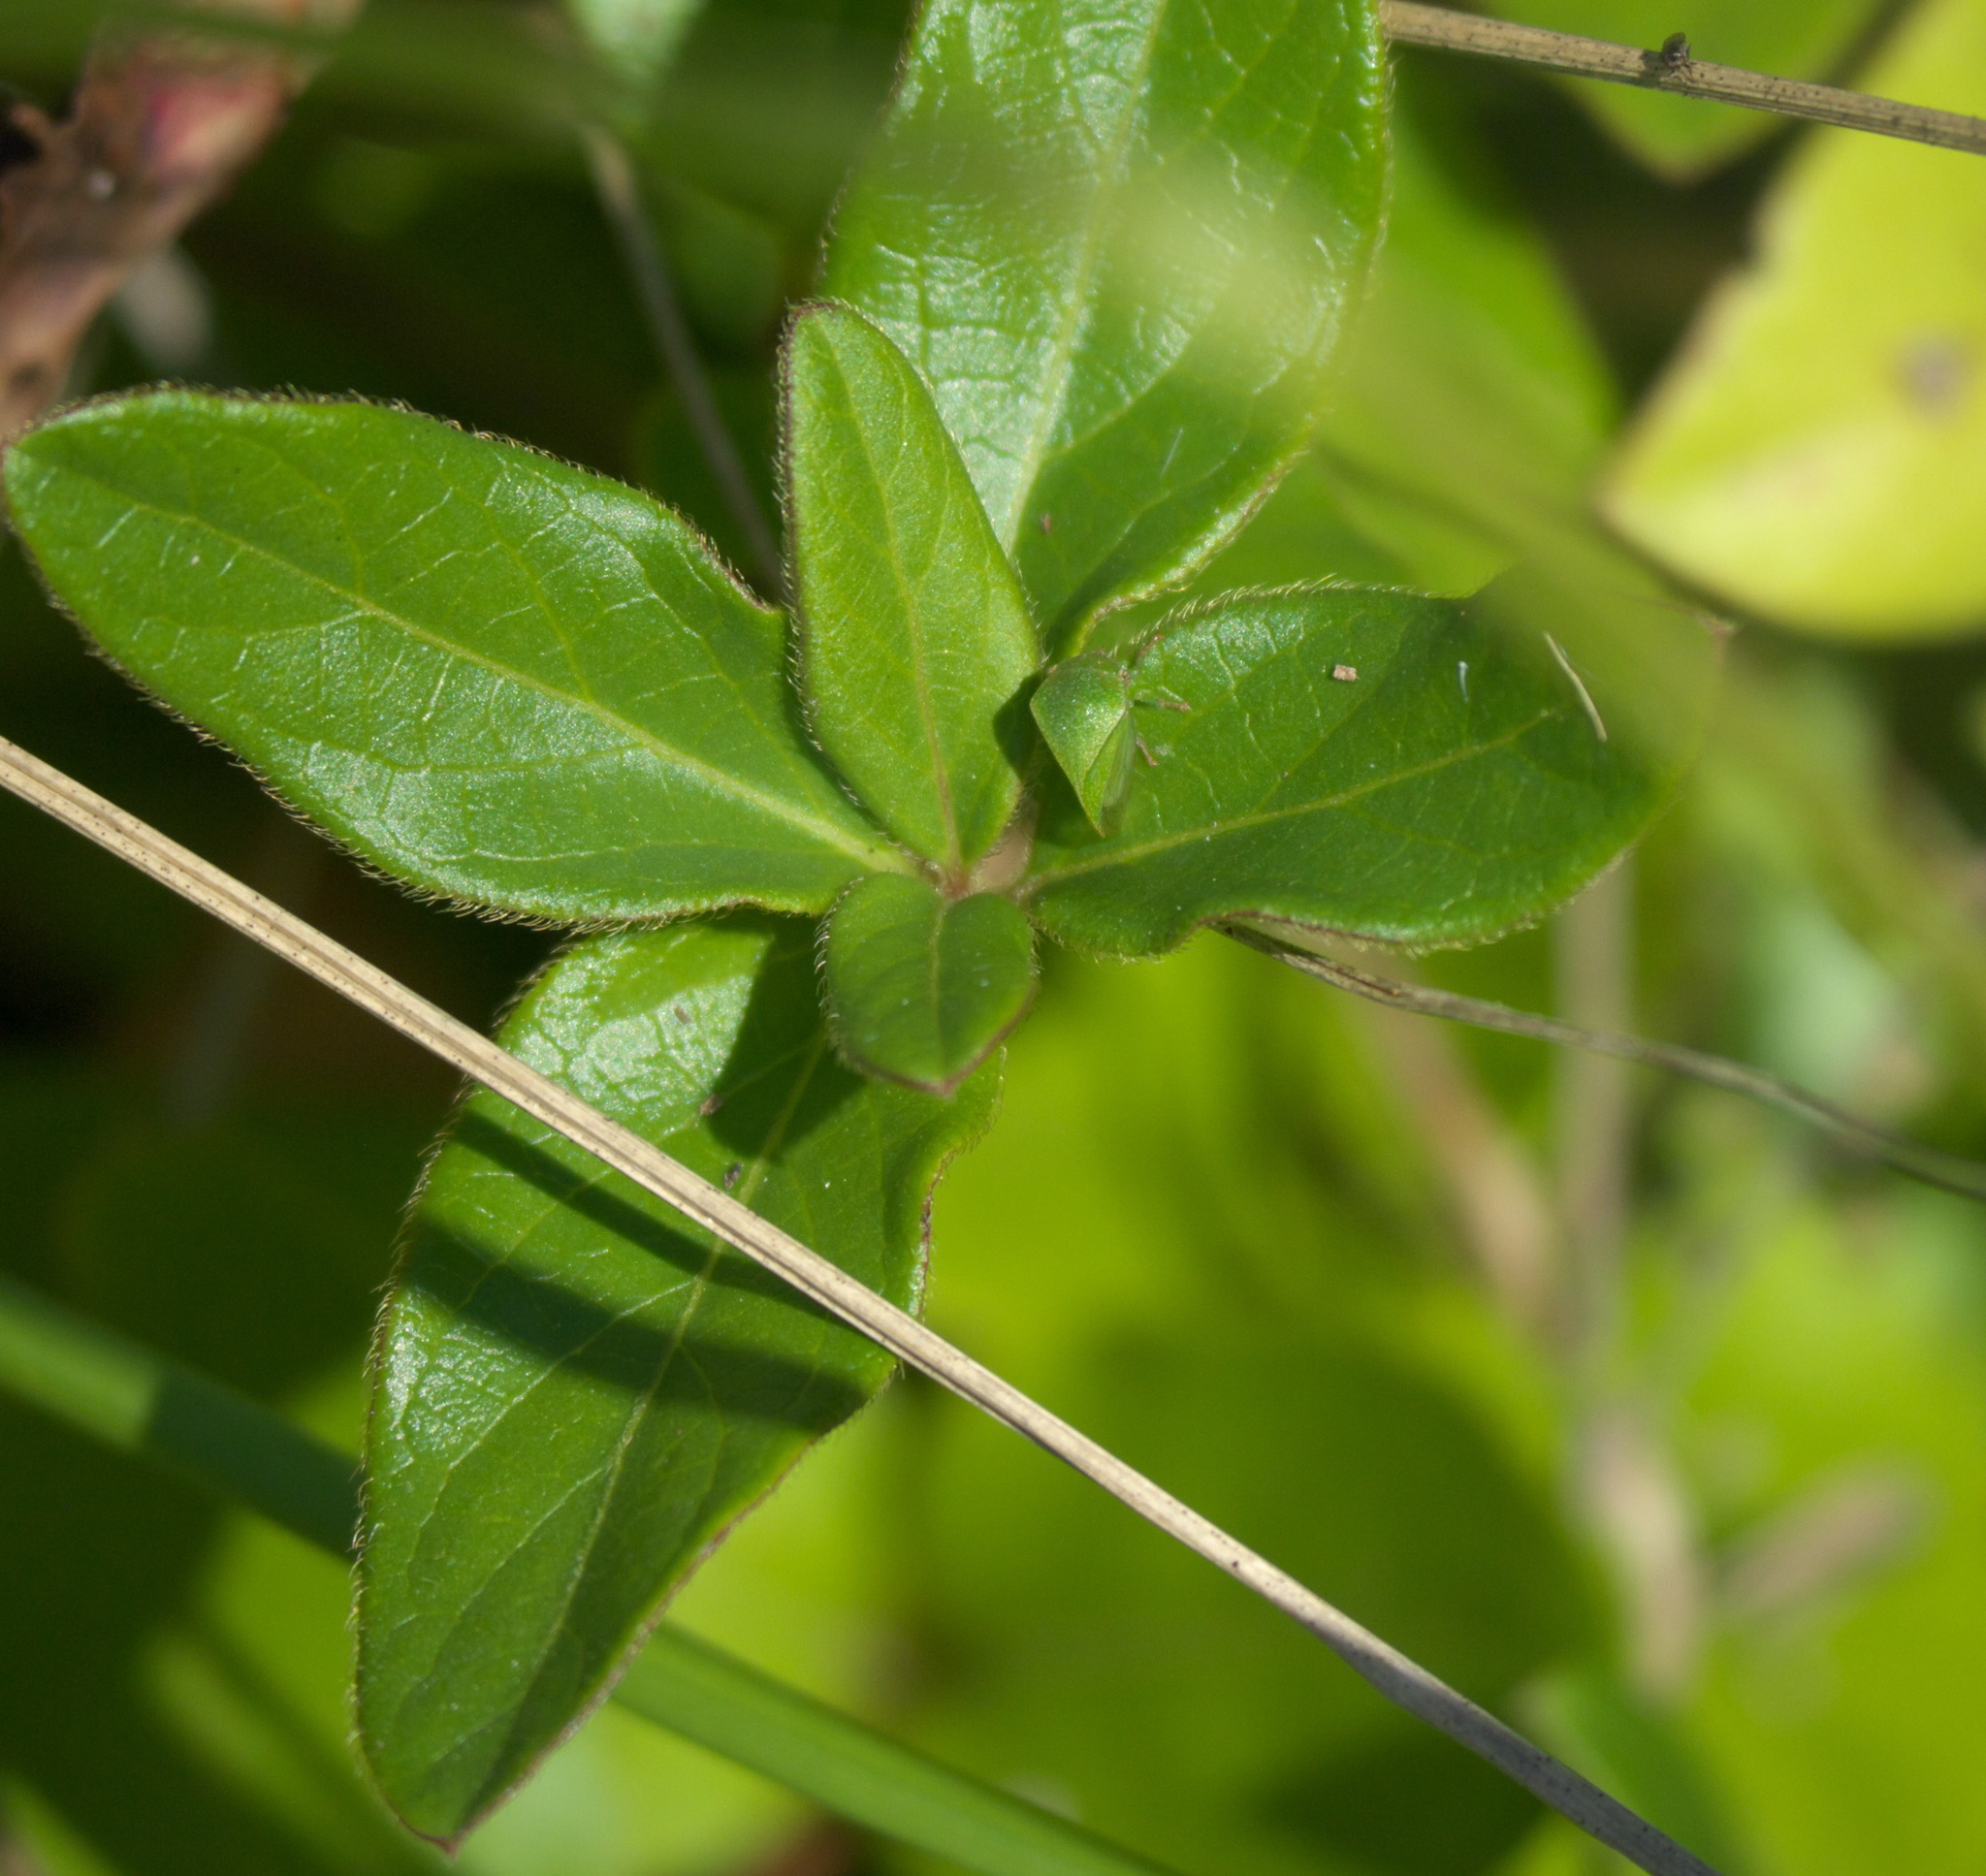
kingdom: Animalia
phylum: Arthropoda
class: Insecta
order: Hemiptera
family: Membracidae
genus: Spissistilus
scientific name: Spissistilus festina
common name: Membracid bug
